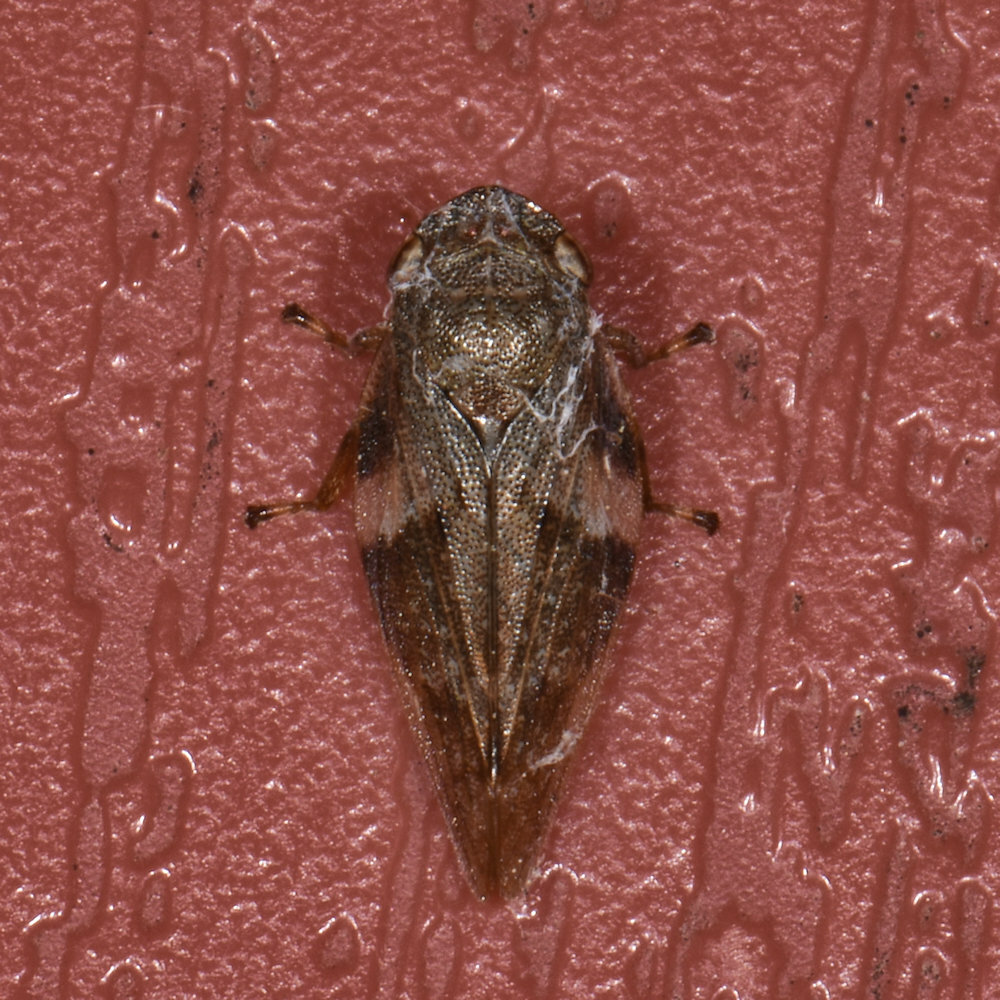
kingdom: Animalia
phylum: Arthropoda
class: Insecta
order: Hemiptera
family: Aphrophoridae
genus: Aphrophora
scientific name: Aphrophora alni
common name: European alder spittlebug
